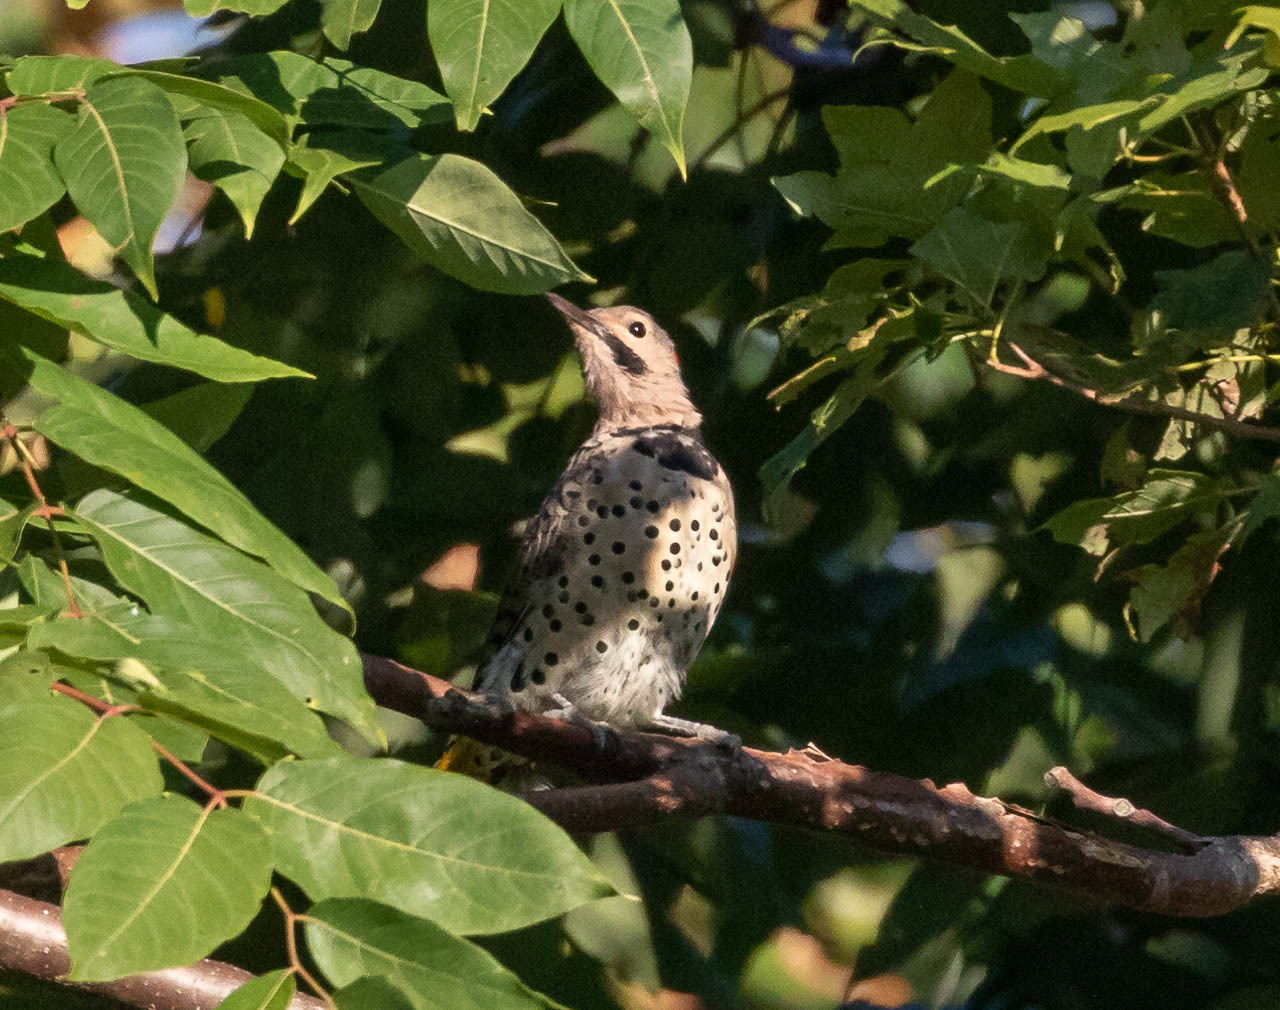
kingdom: Animalia
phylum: Chordata
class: Aves
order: Piciformes
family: Picidae
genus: Colaptes
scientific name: Colaptes auratus
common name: Northern flicker
